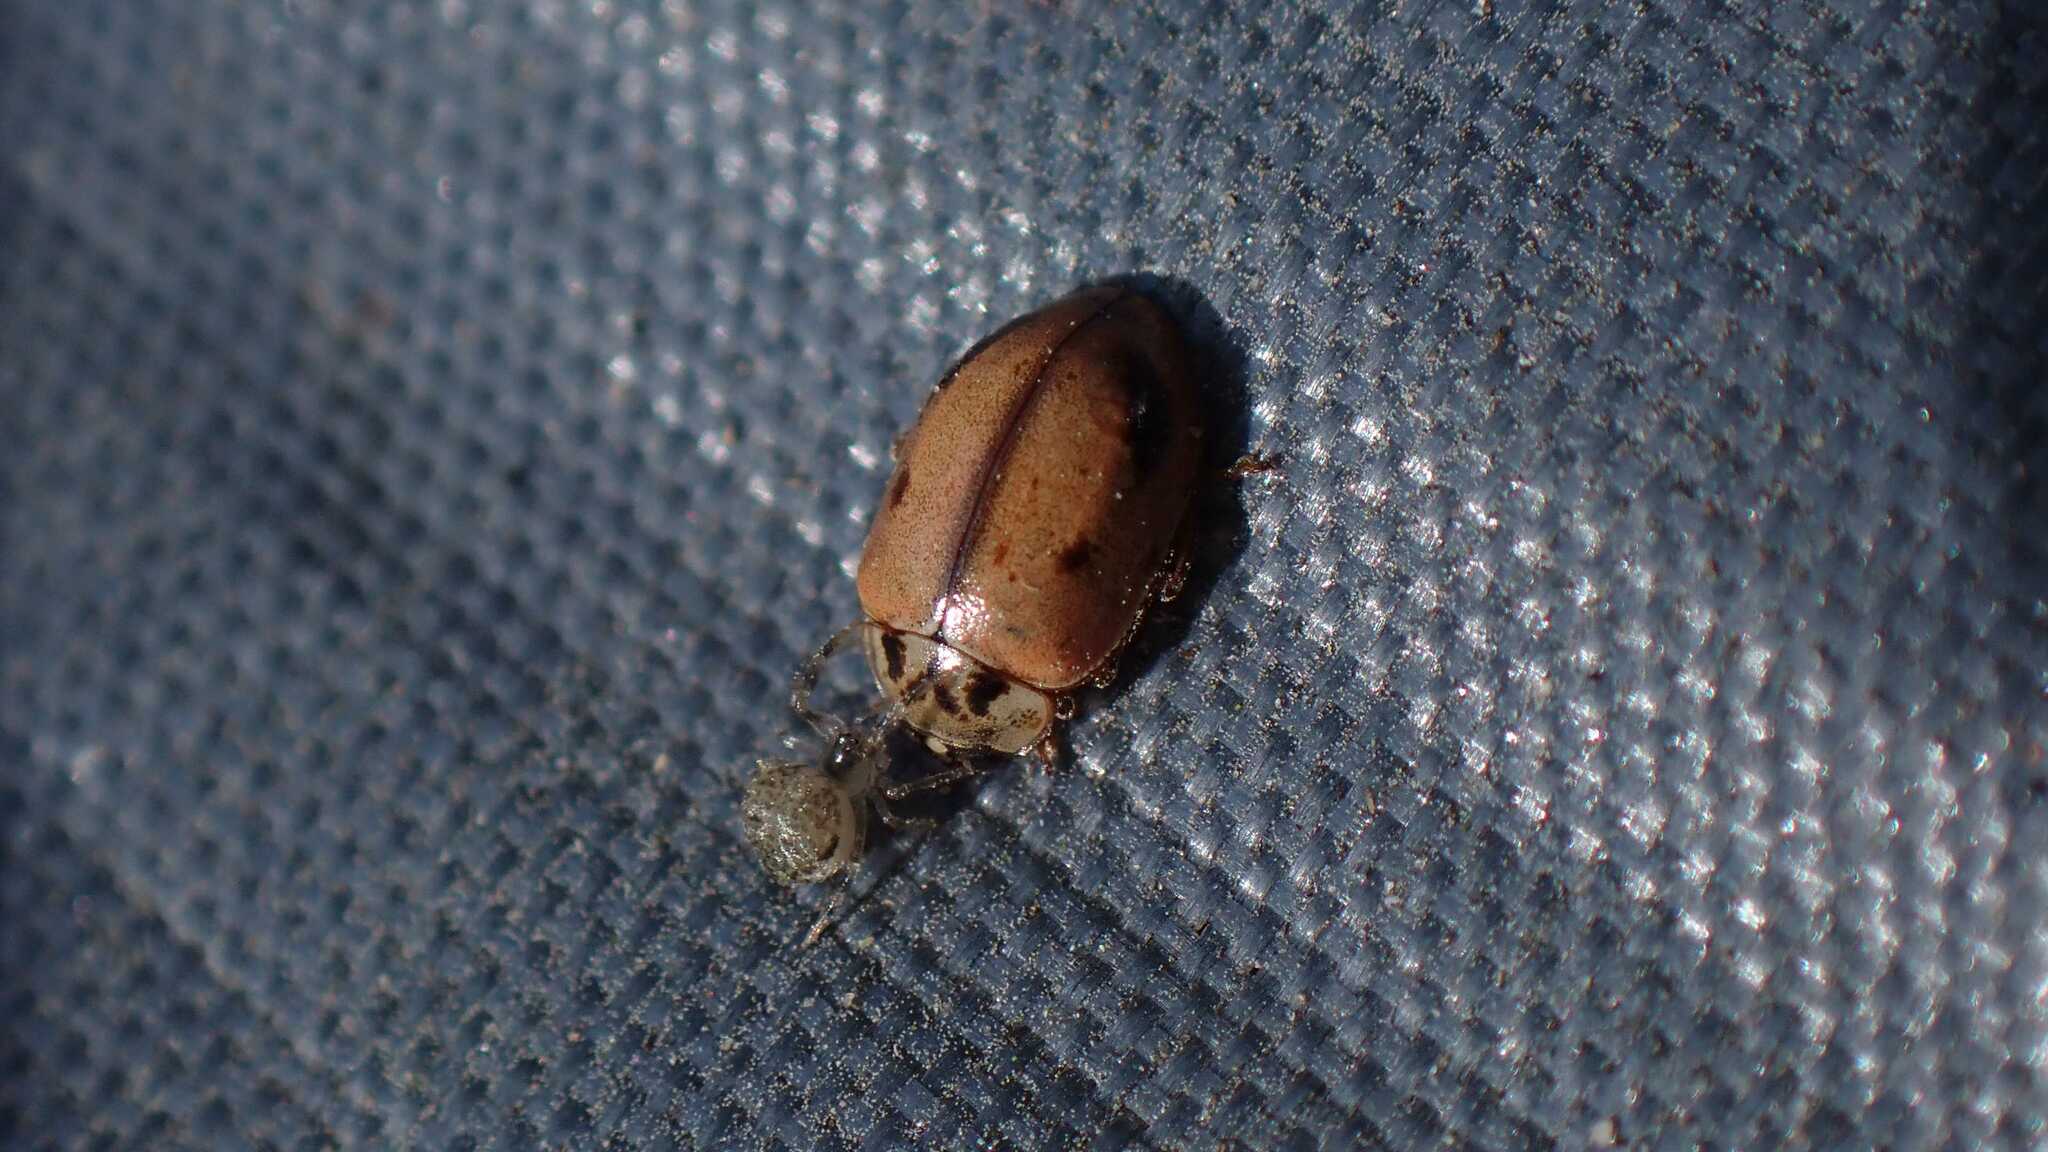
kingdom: Animalia
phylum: Arthropoda
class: Insecta
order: Coleoptera
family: Coccinellidae
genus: Aphidecta
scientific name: Aphidecta obliterata
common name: Larch ladybird
